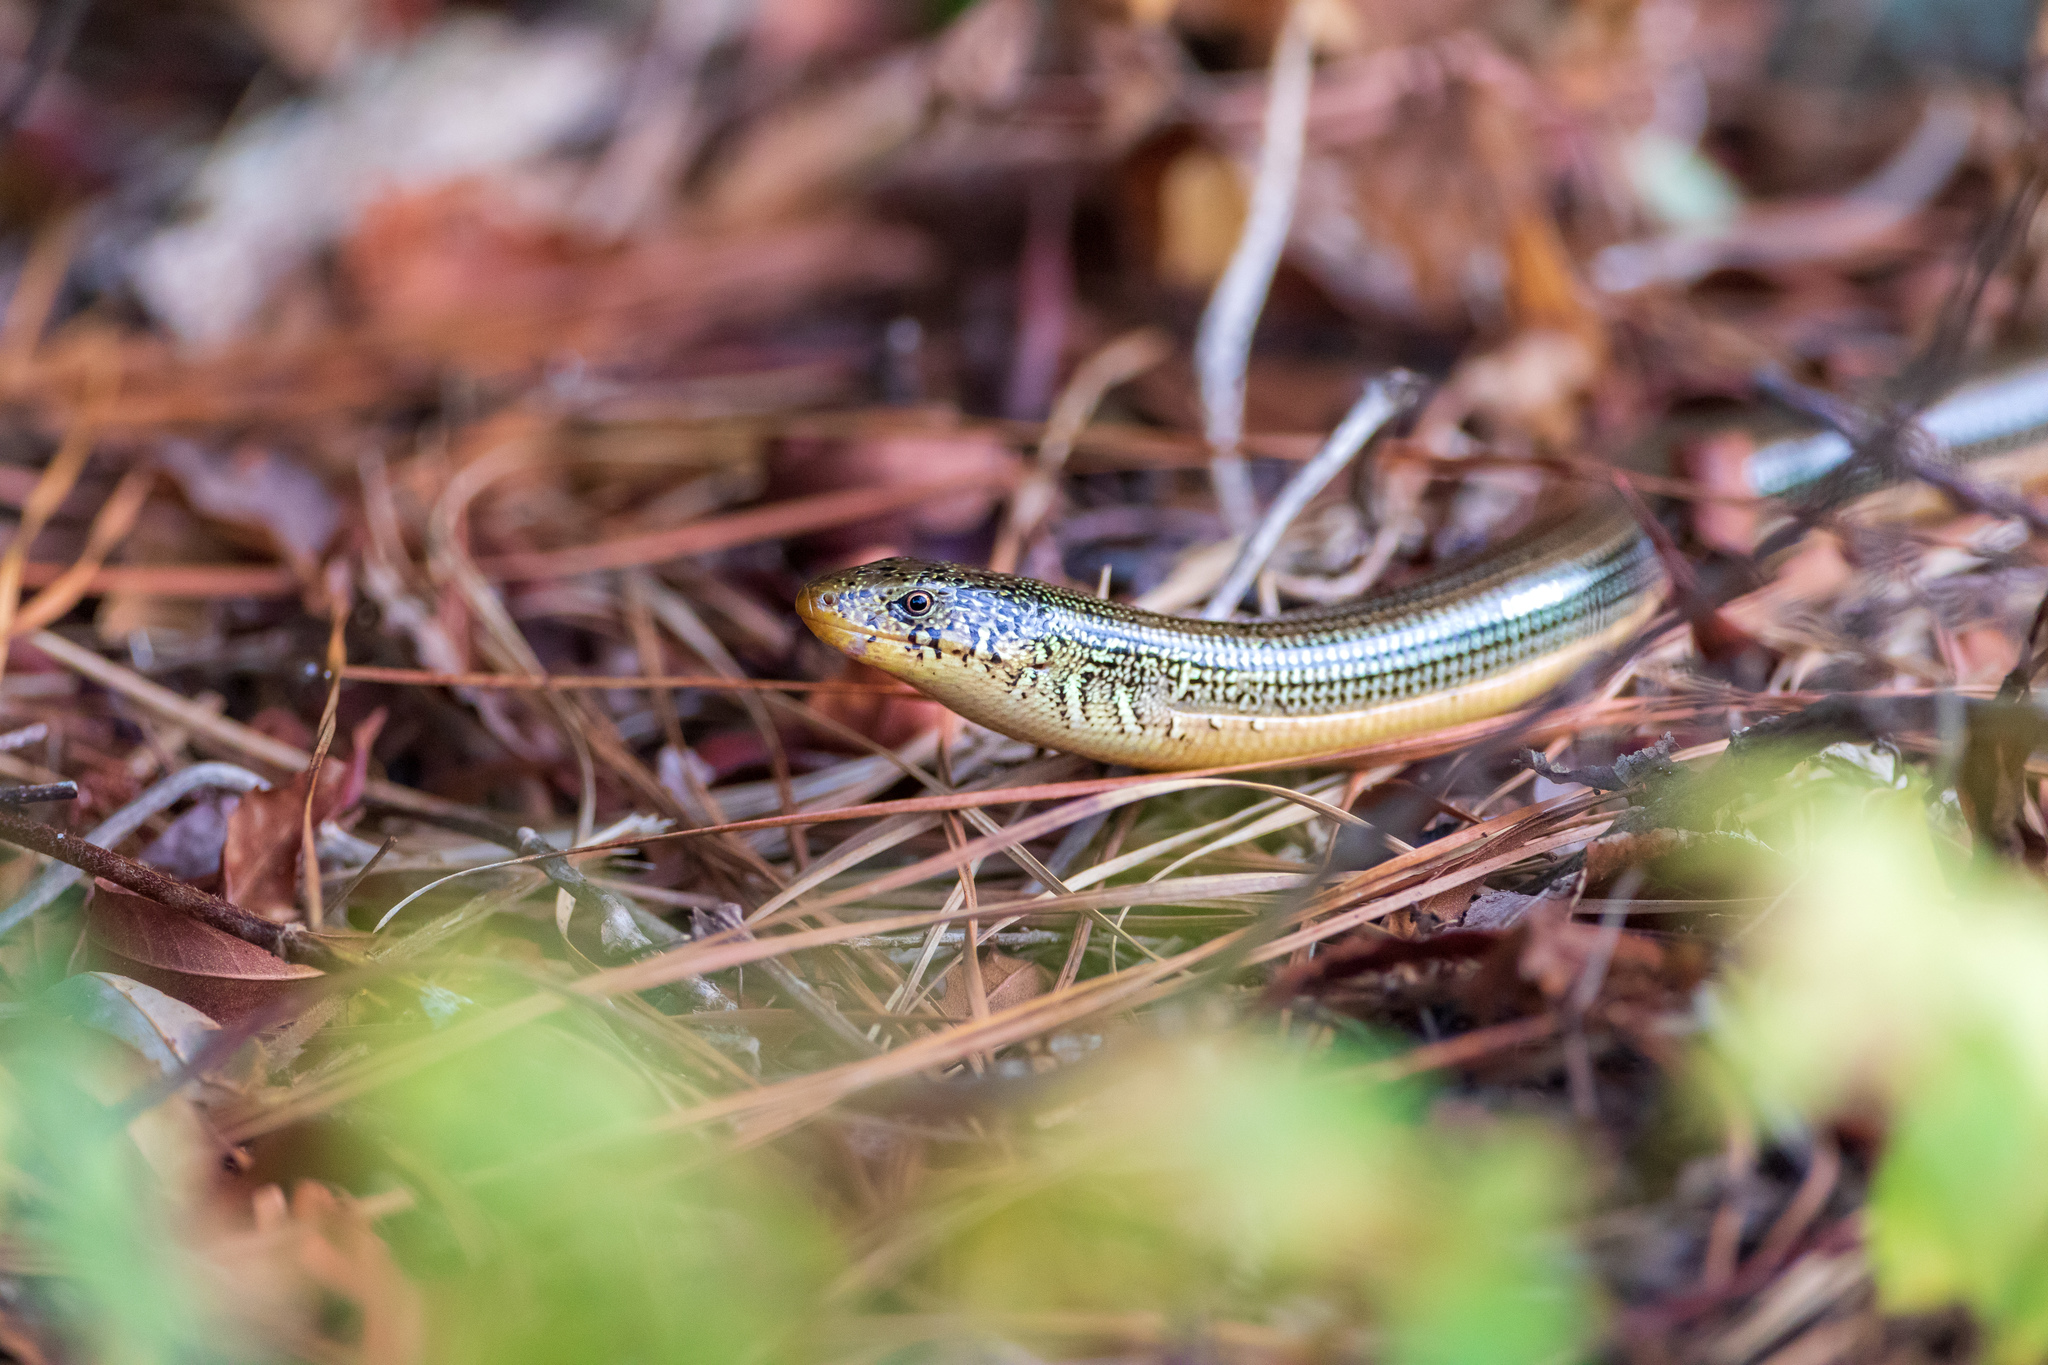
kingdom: Animalia
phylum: Chordata
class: Squamata
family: Anguidae
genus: Ophisaurus
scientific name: Ophisaurus ventralis
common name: Eastern glass lizard
